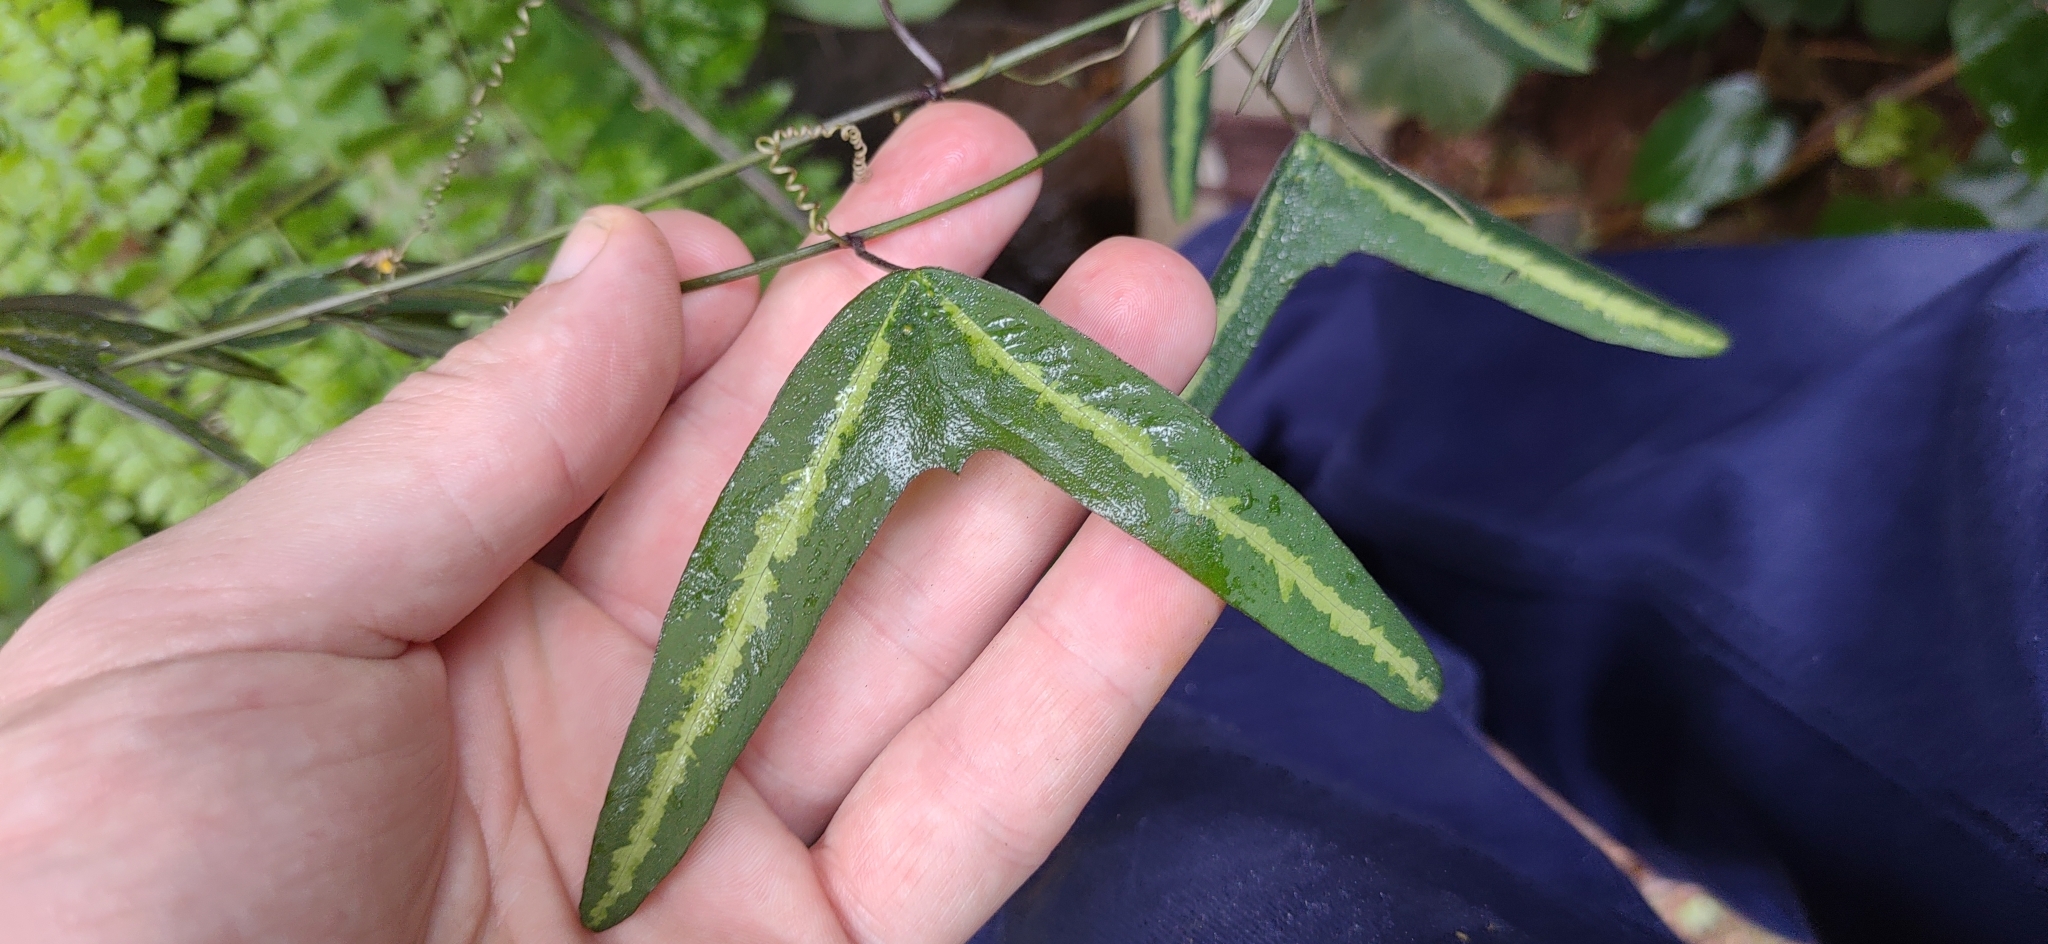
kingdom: Plantae
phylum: Tracheophyta
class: Magnoliopsida
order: Malpighiales
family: Passifloraceae
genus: Passiflora
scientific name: Passiflora urnifolia
